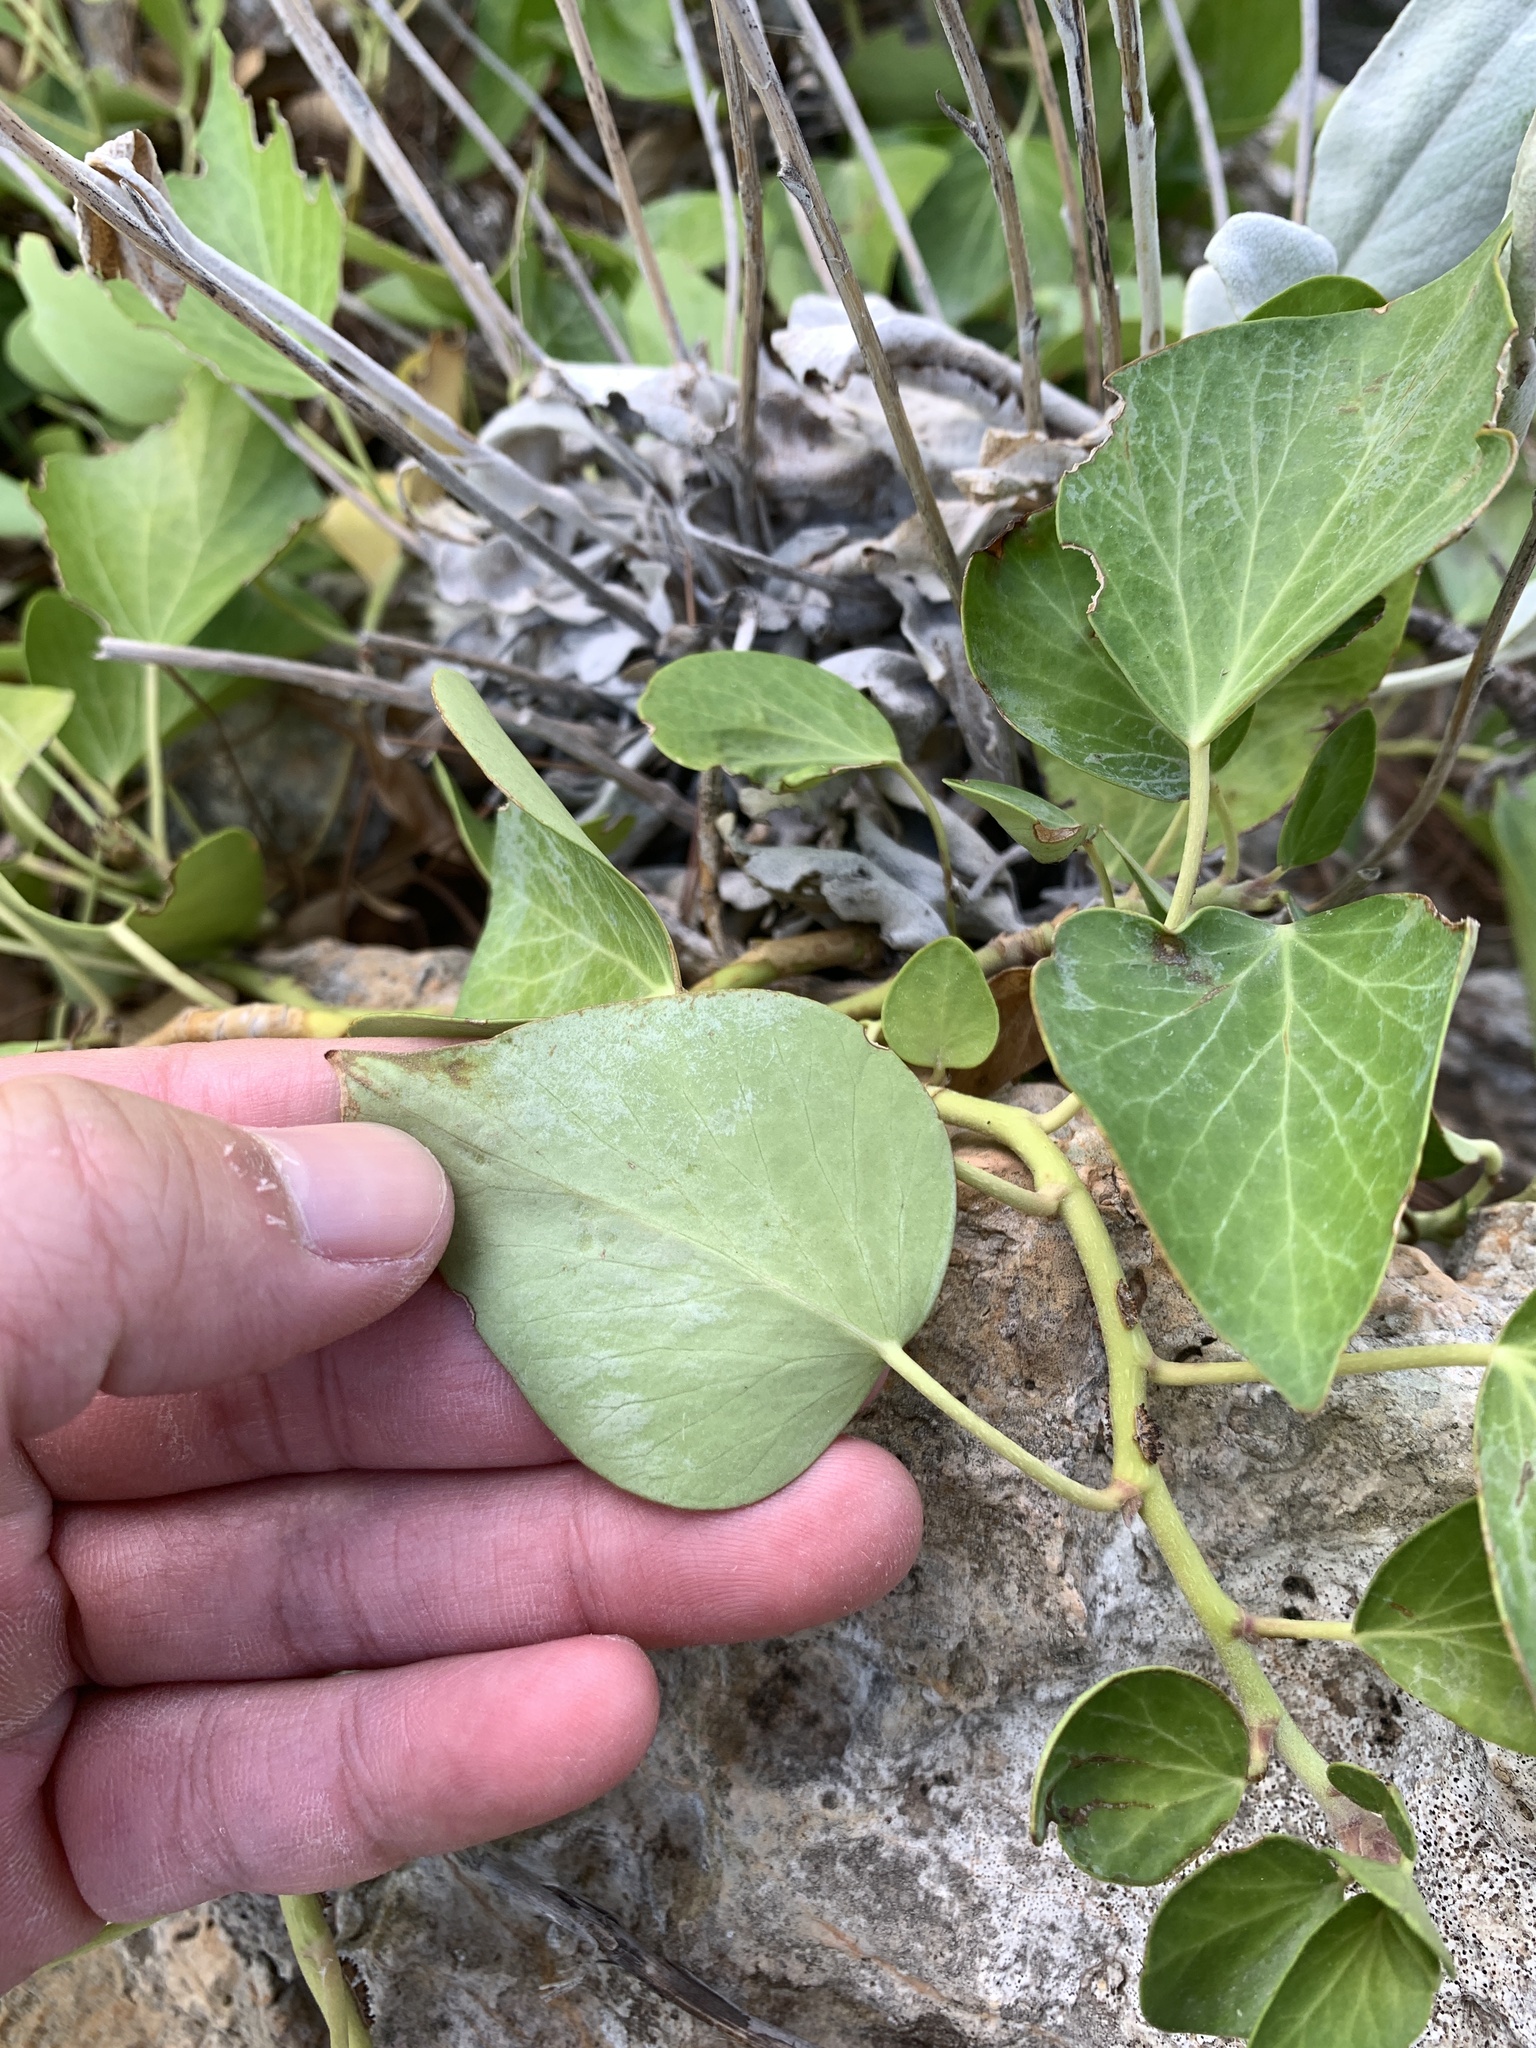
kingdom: Plantae
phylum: Tracheophyta
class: Magnoliopsida
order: Apiales
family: Araliaceae
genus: Hedera
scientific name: Hedera helix
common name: Ivy
